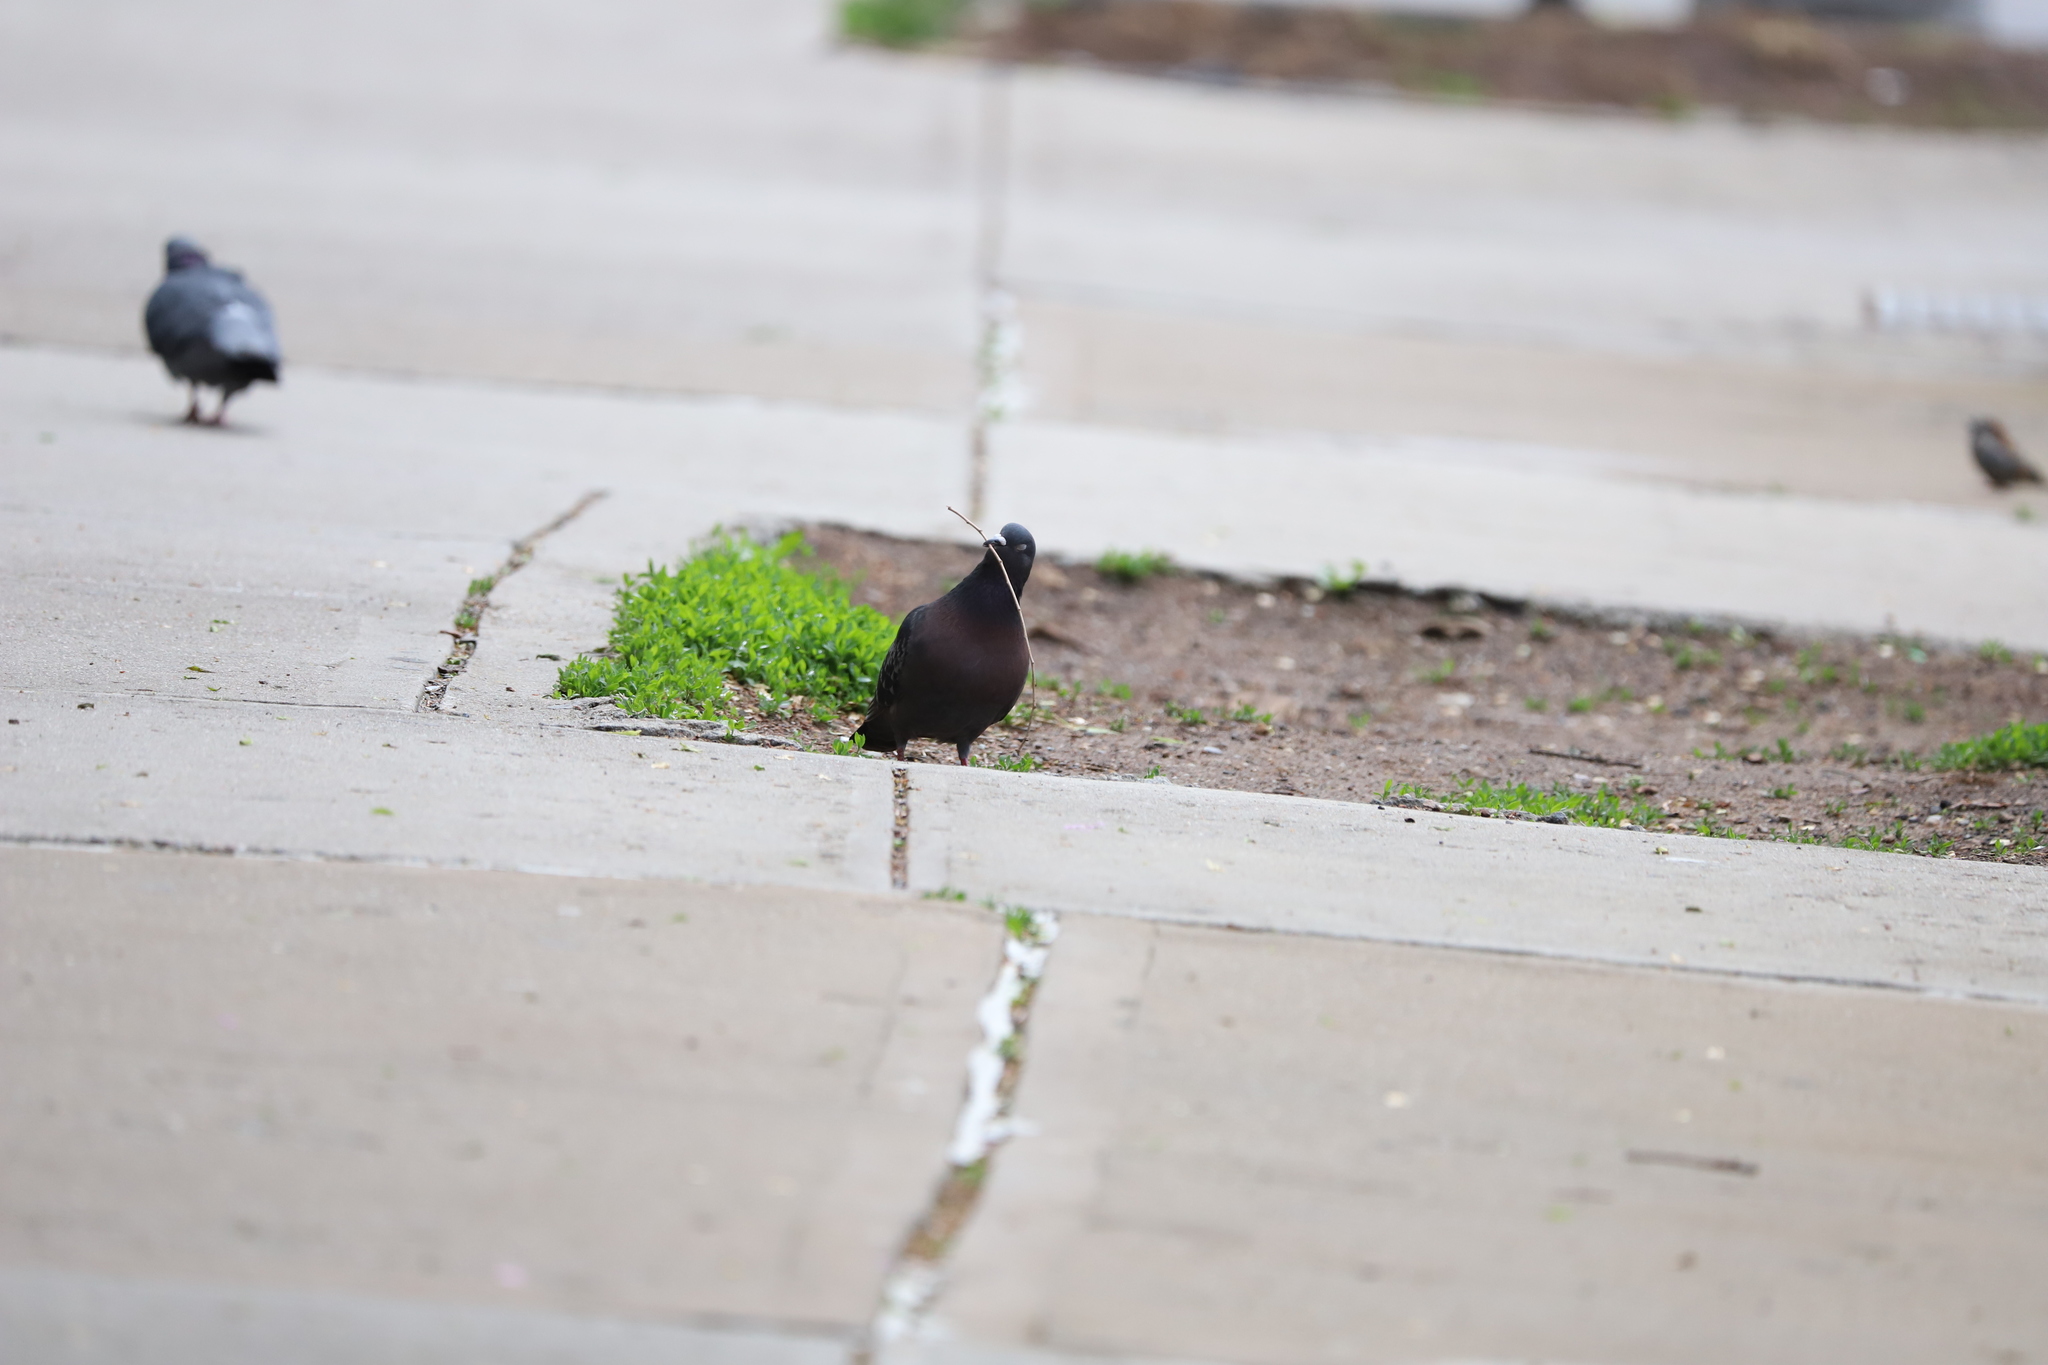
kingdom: Animalia
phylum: Chordata
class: Aves
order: Columbiformes
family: Columbidae
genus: Columba
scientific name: Columba livia
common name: Rock pigeon
